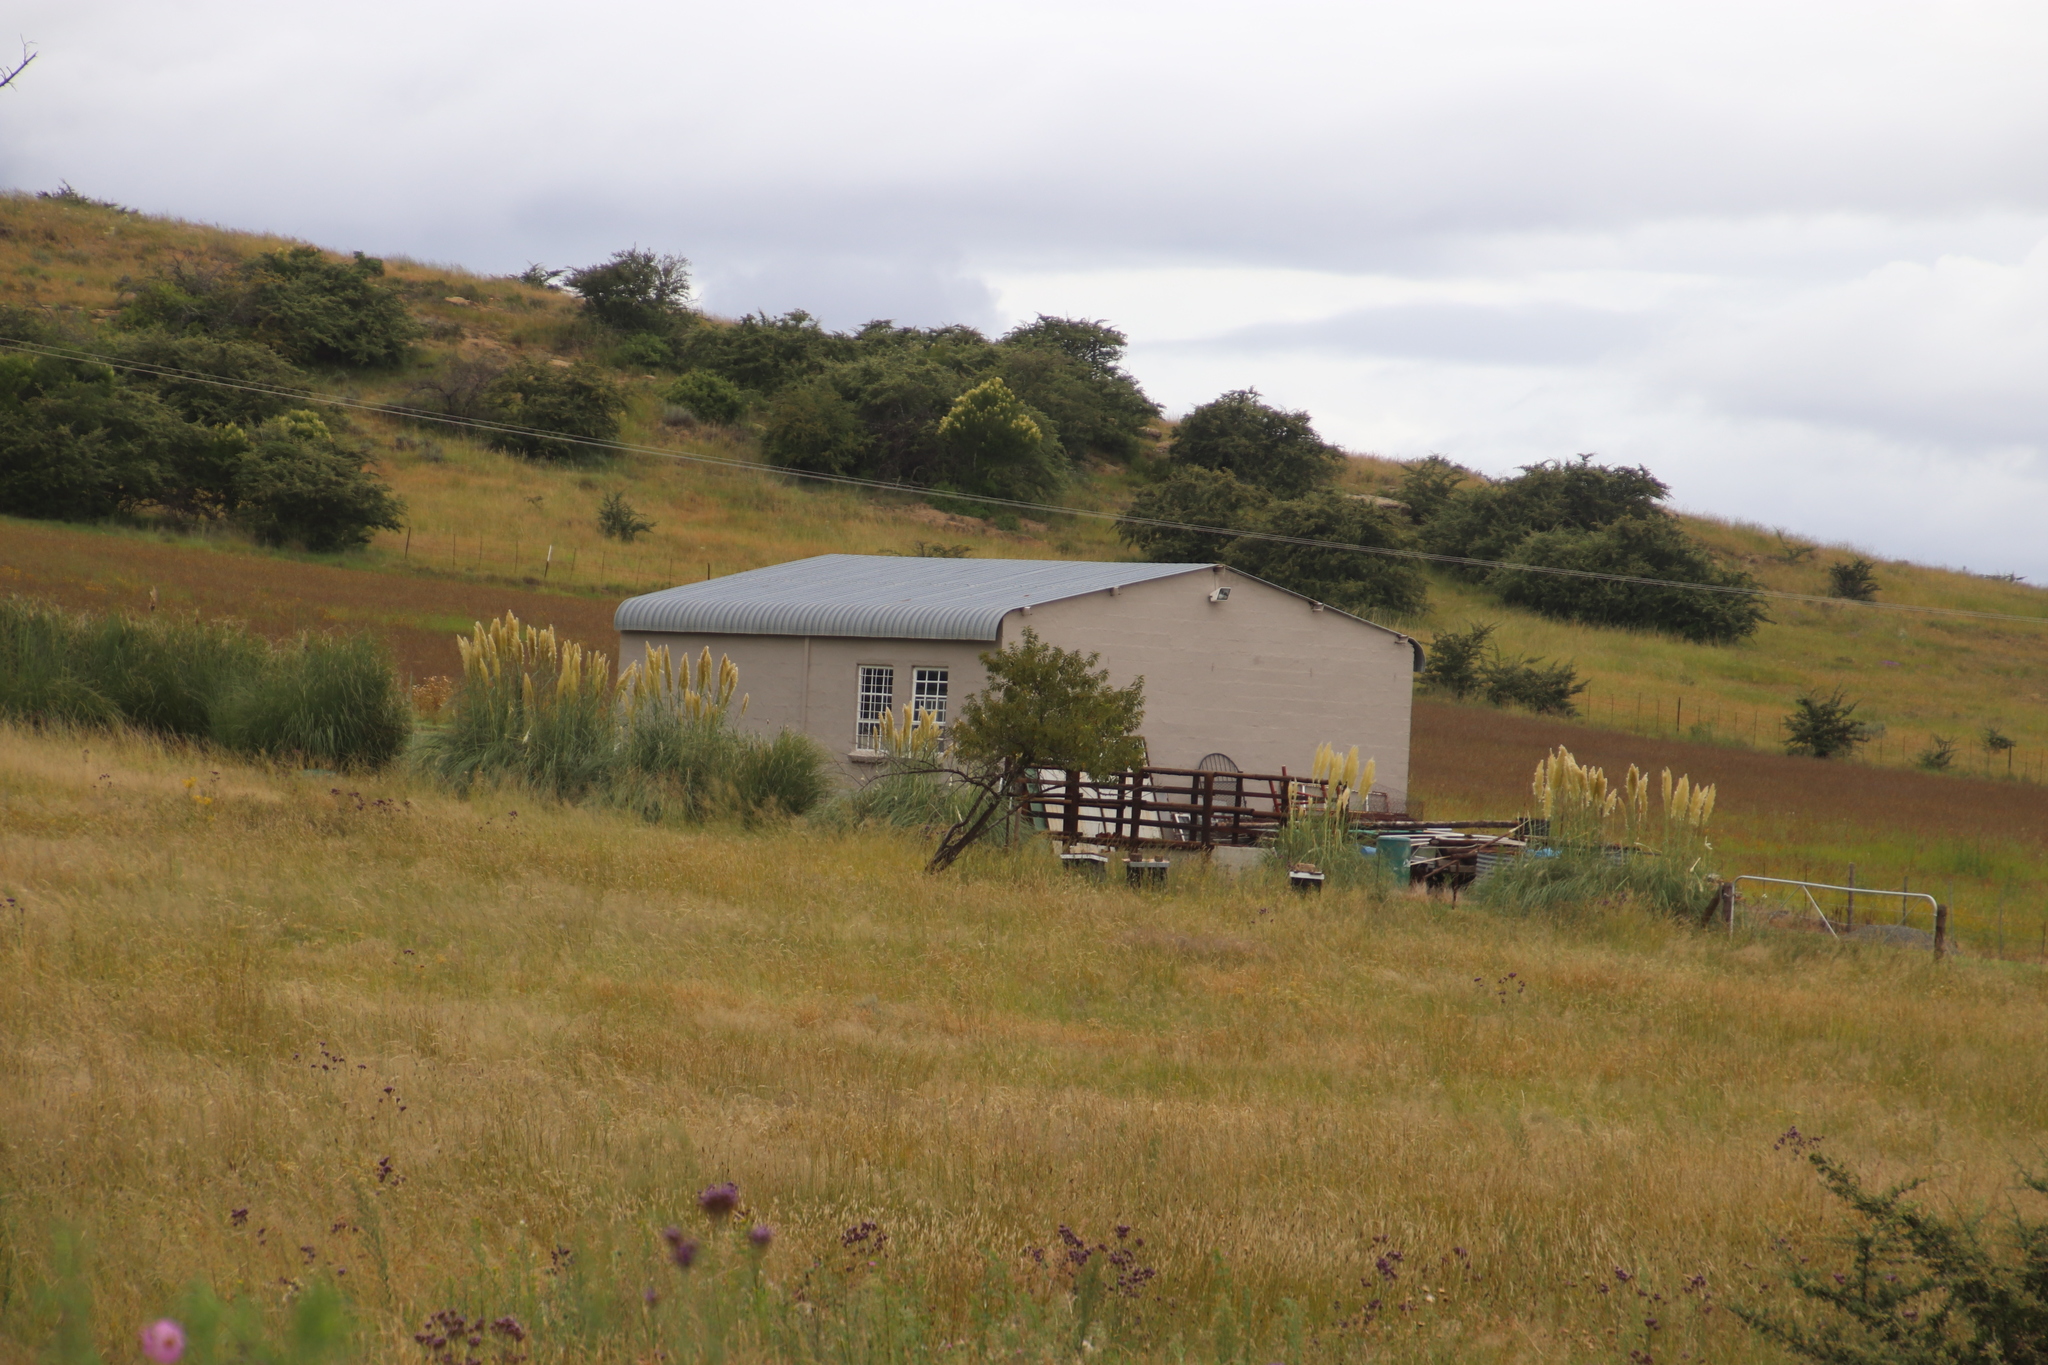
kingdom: Plantae
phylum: Tracheophyta
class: Liliopsida
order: Poales
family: Poaceae
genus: Cortaderia
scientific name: Cortaderia selloana
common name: Uruguayan pampas grass
